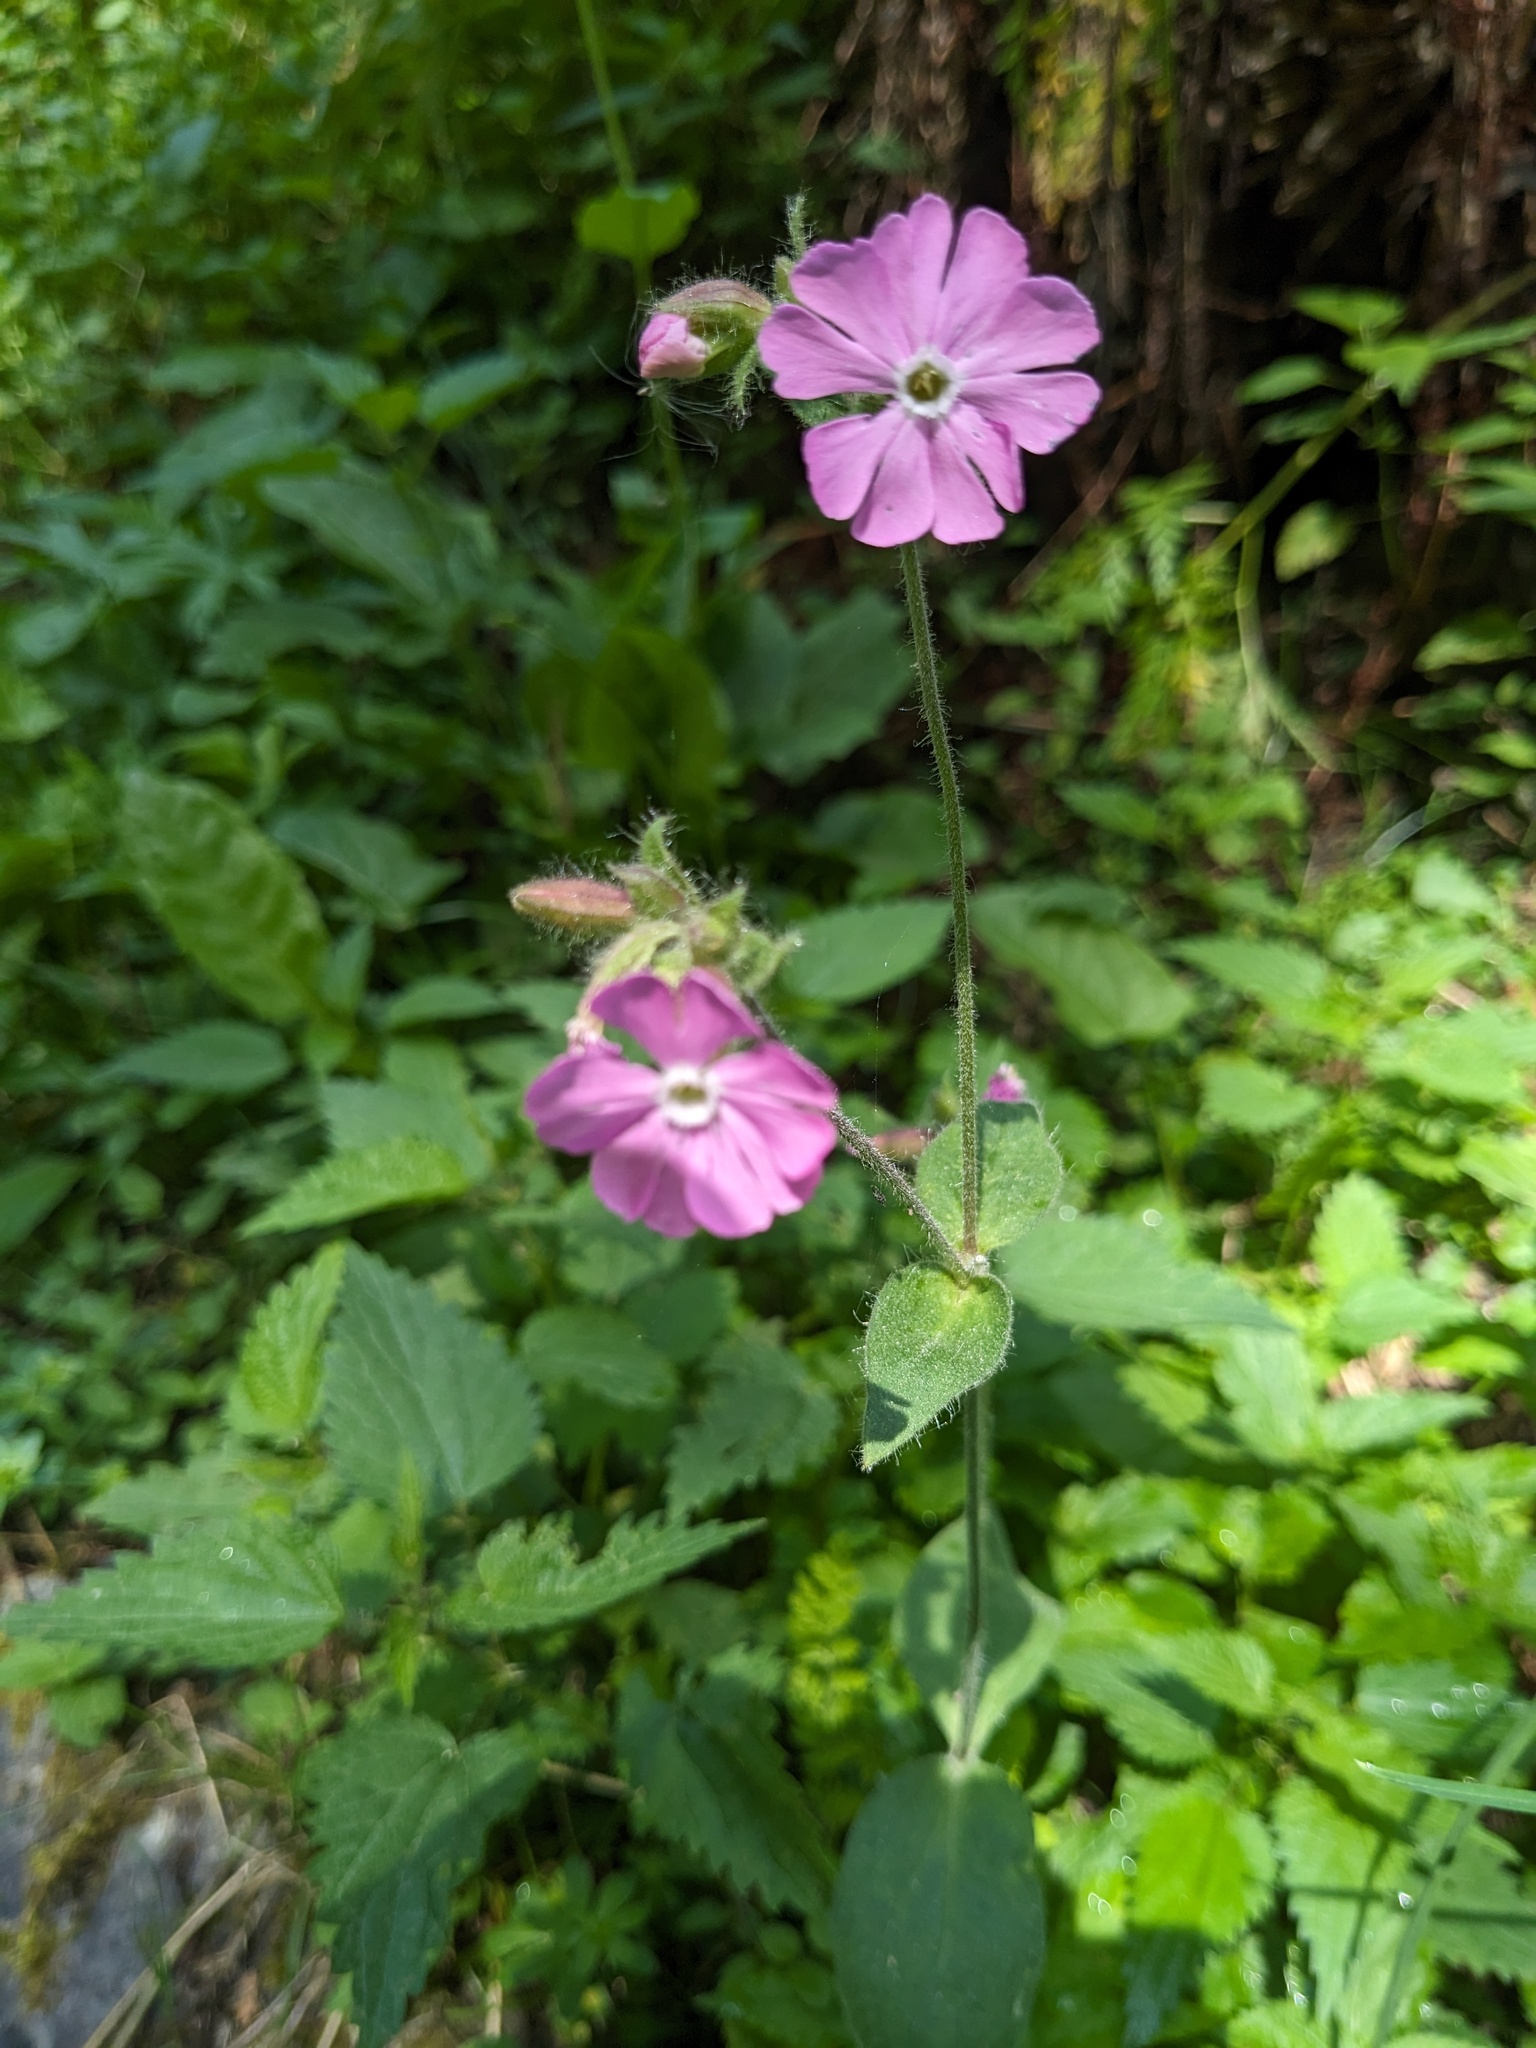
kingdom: Plantae
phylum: Tracheophyta
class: Magnoliopsida
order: Caryophyllales
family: Caryophyllaceae
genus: Silene
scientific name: Silene dioica
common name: Red campion
